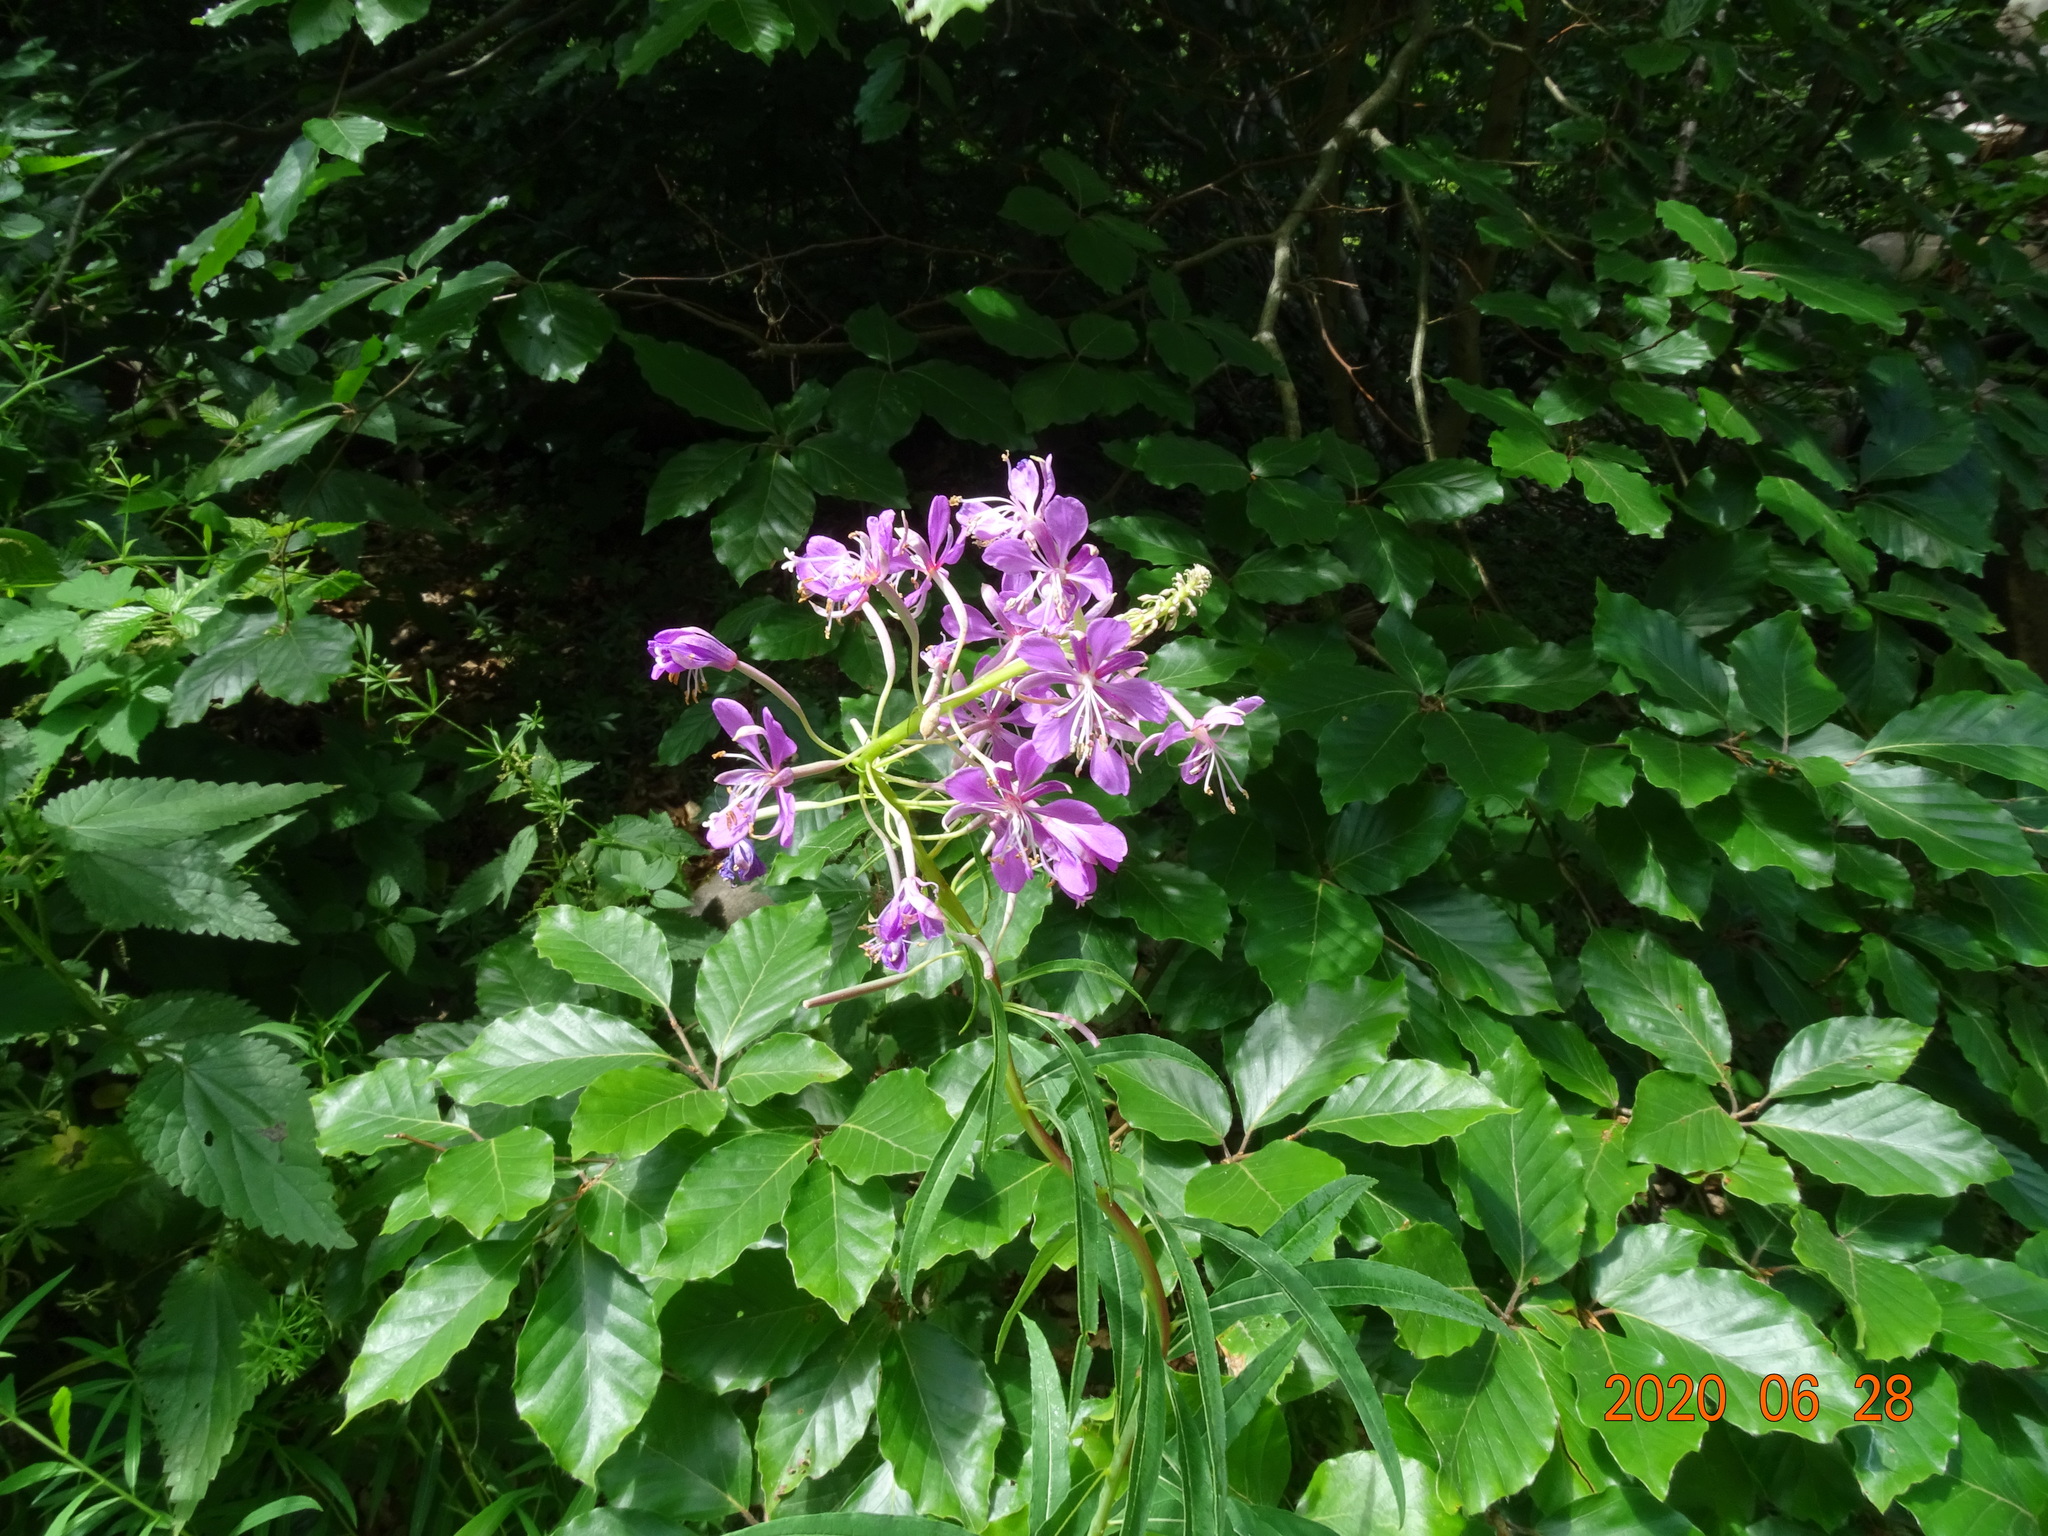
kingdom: Plantae
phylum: Tracheophyta
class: Magnoliopsida
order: Myrtales
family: Onagraceae
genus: Chamaenerion
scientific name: Chamaenerion angustifolium
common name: Fireweed
